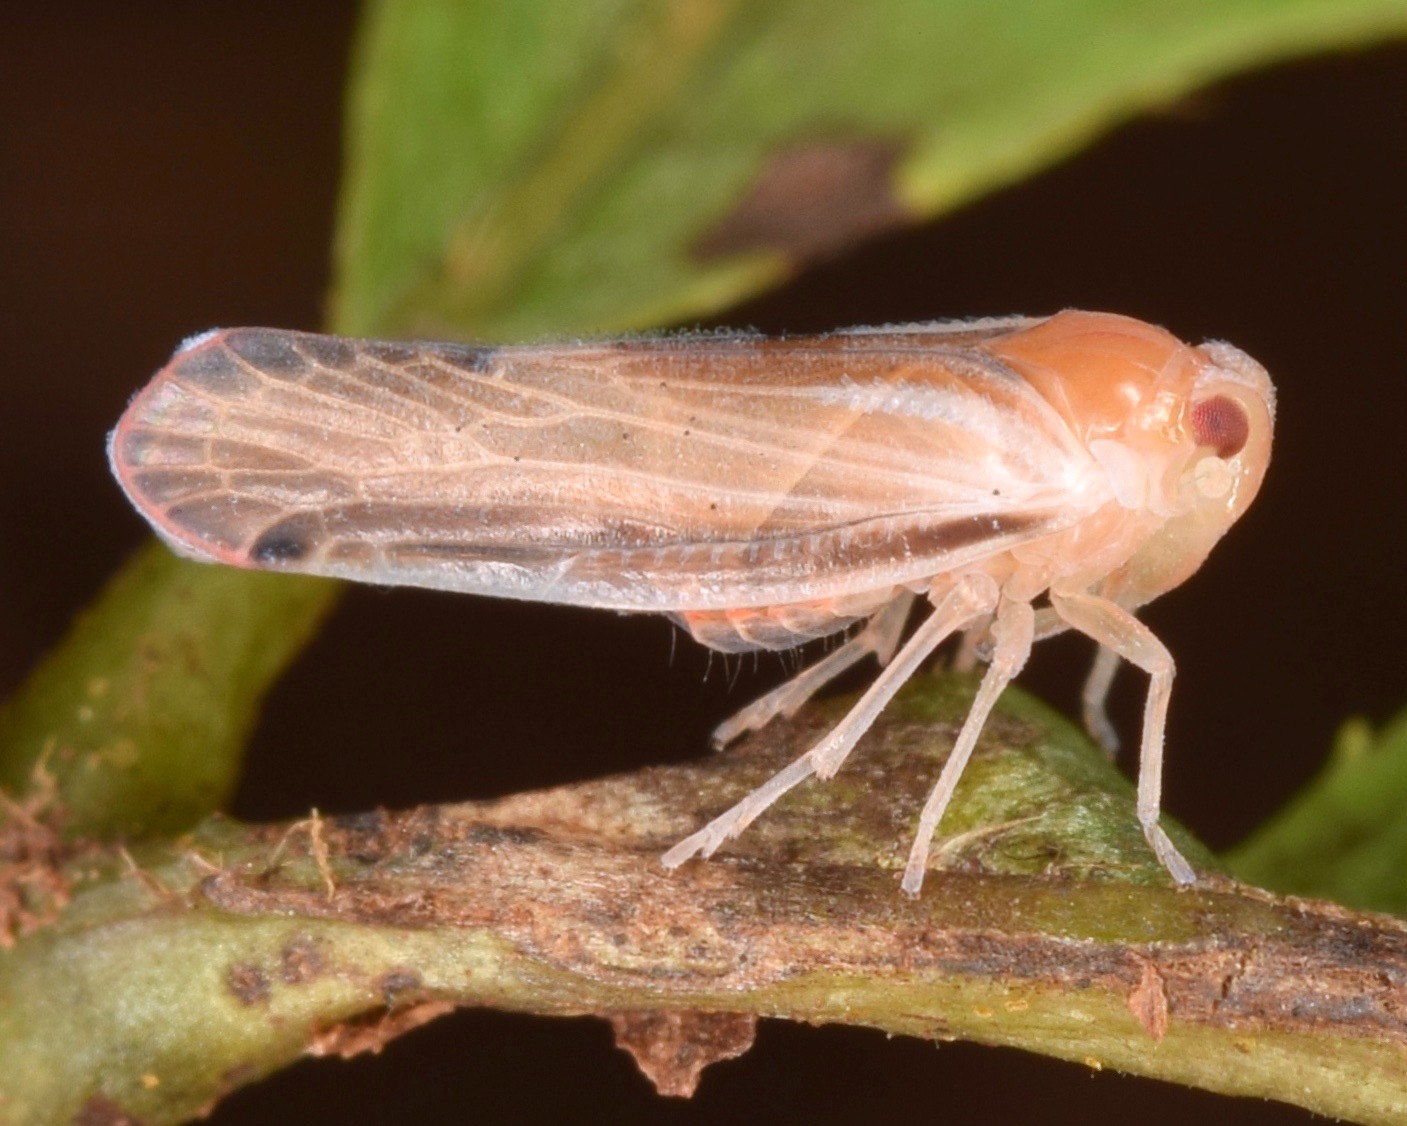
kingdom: Animalia
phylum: Arthropoda
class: Insecta
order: Hemiptera
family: Derbidae
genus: Omolicna
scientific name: Omolicna uhleri
